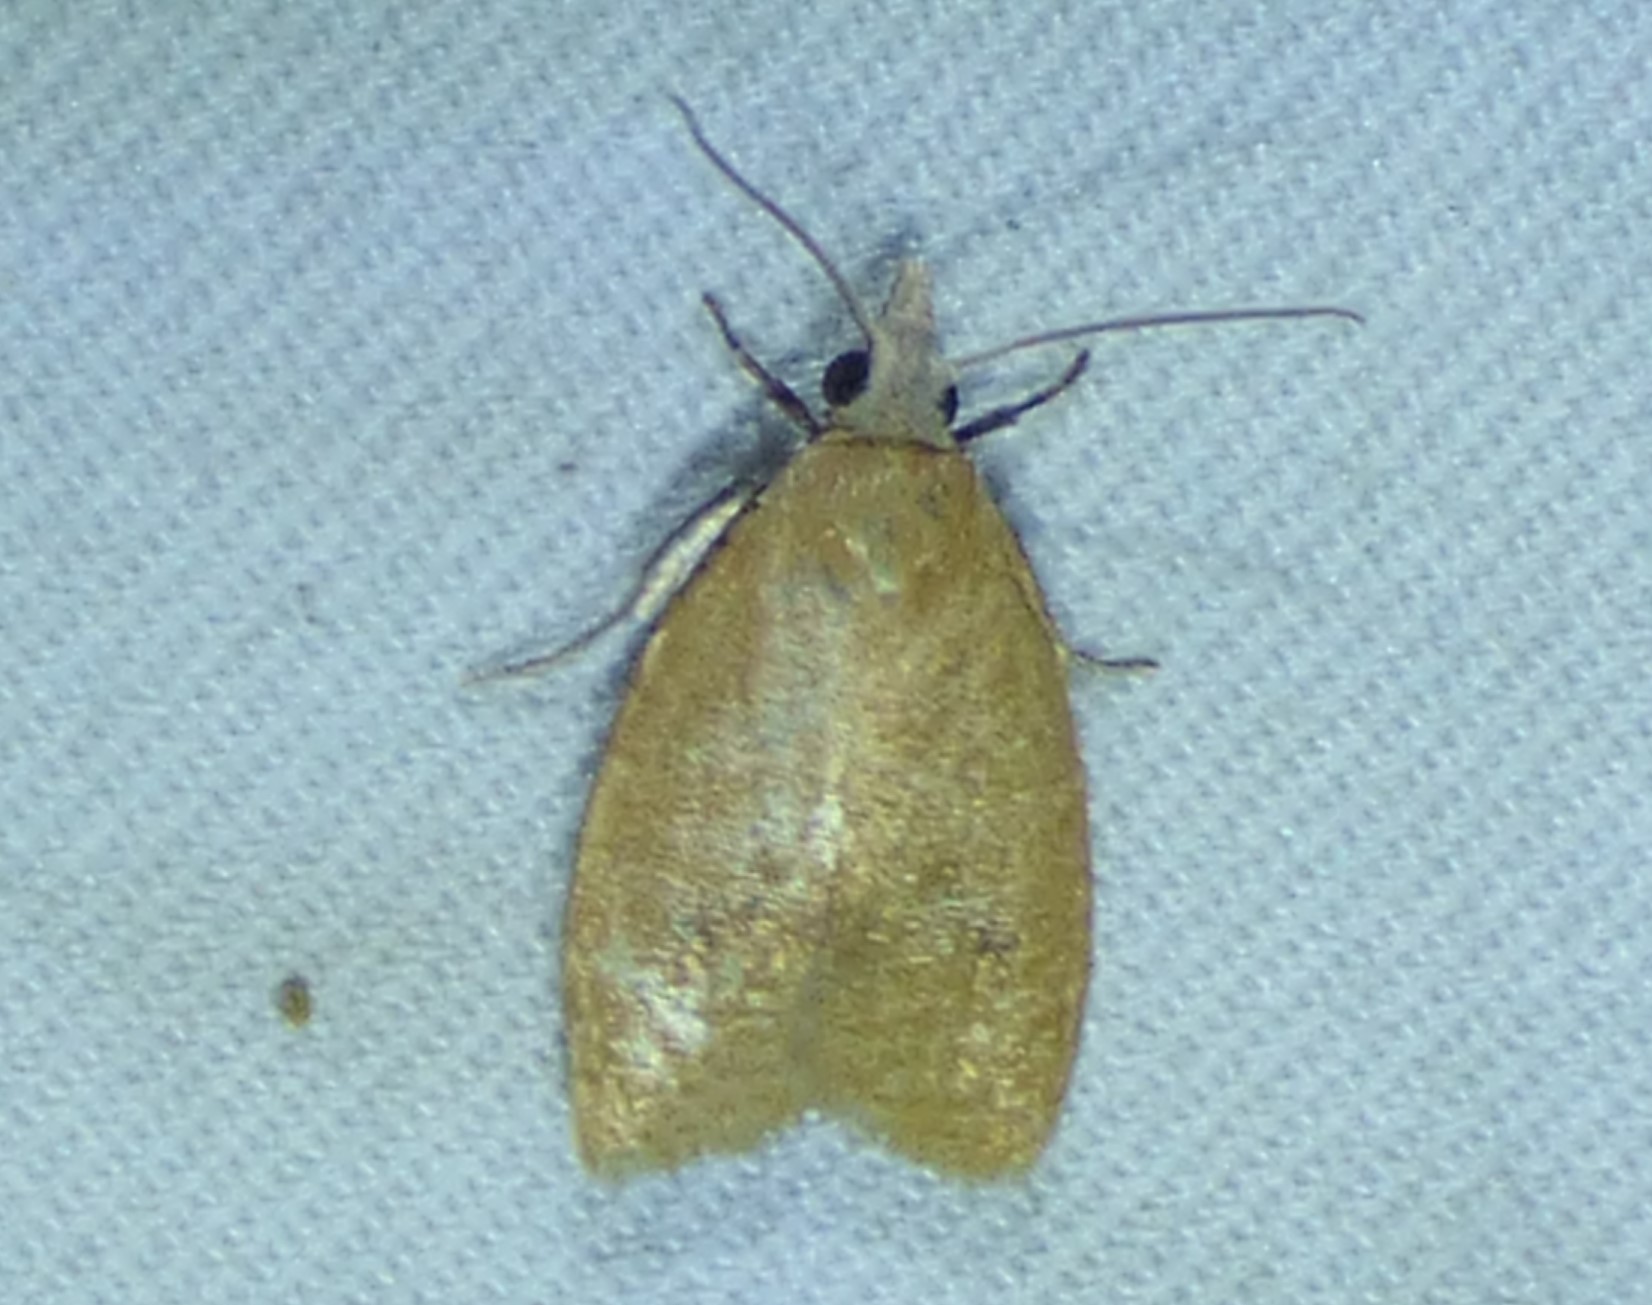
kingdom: Animalia
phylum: Arthropoda
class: Insecta
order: Lepidoptera
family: Tortricidae
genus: Sparganothoides
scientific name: Sparganothoides lentiginosana
